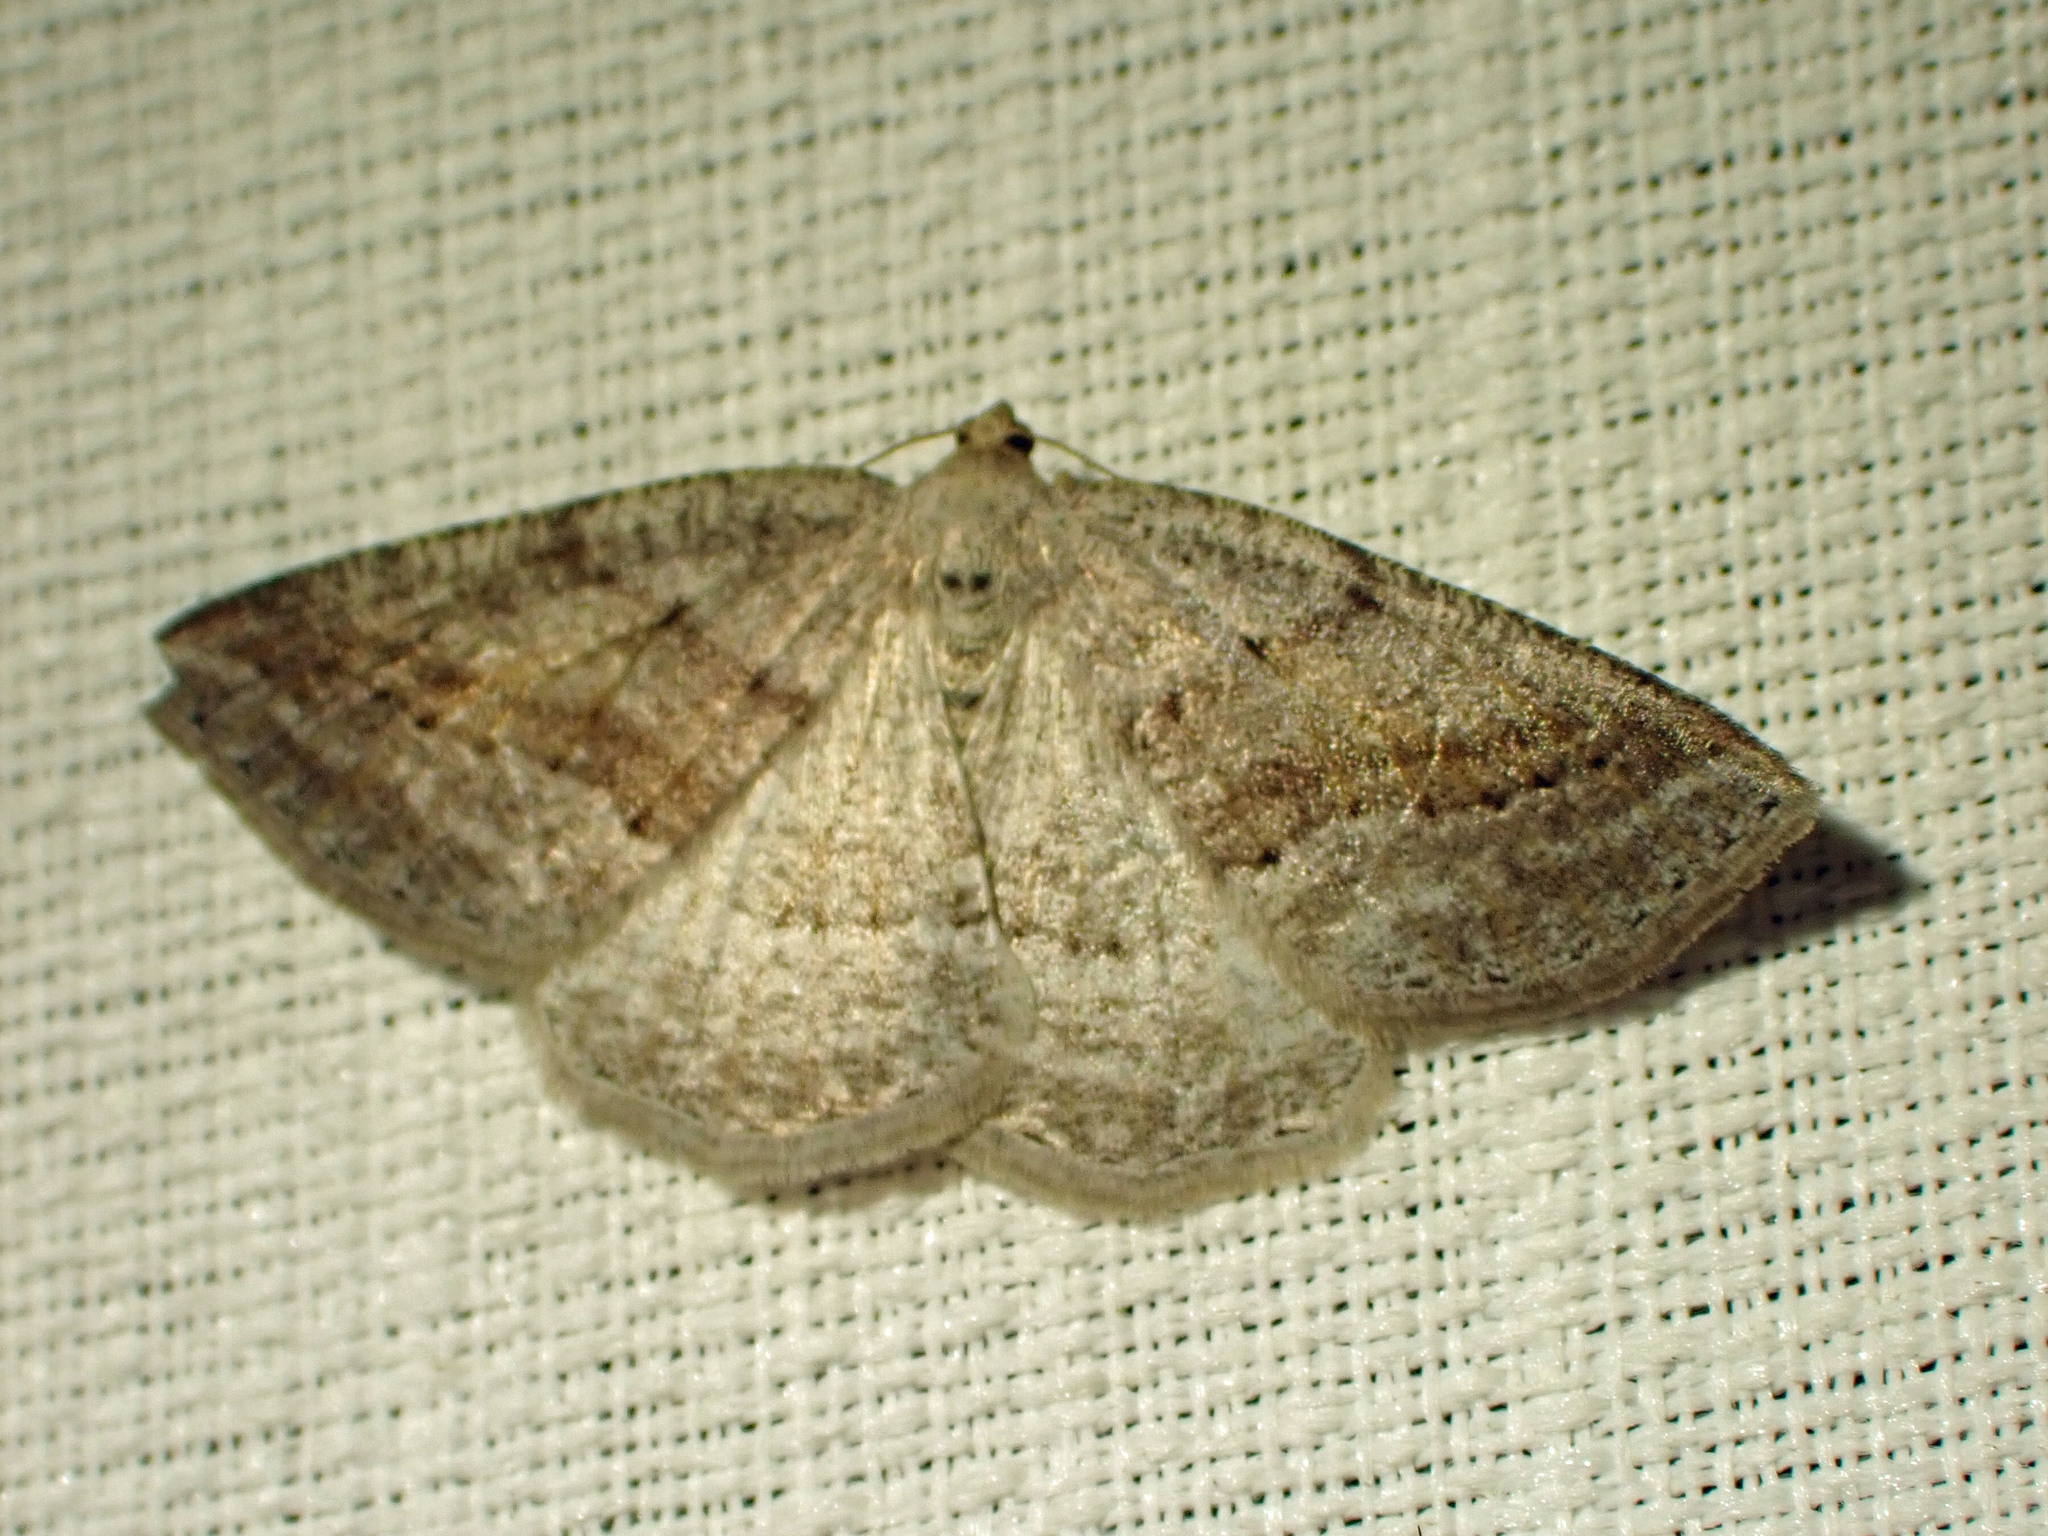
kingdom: Animalia
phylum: Arthropoda
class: Insecta
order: Lepidoptera
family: Geometridae
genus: Tacparia
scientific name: Tacparia detersata
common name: Pale alder moth
